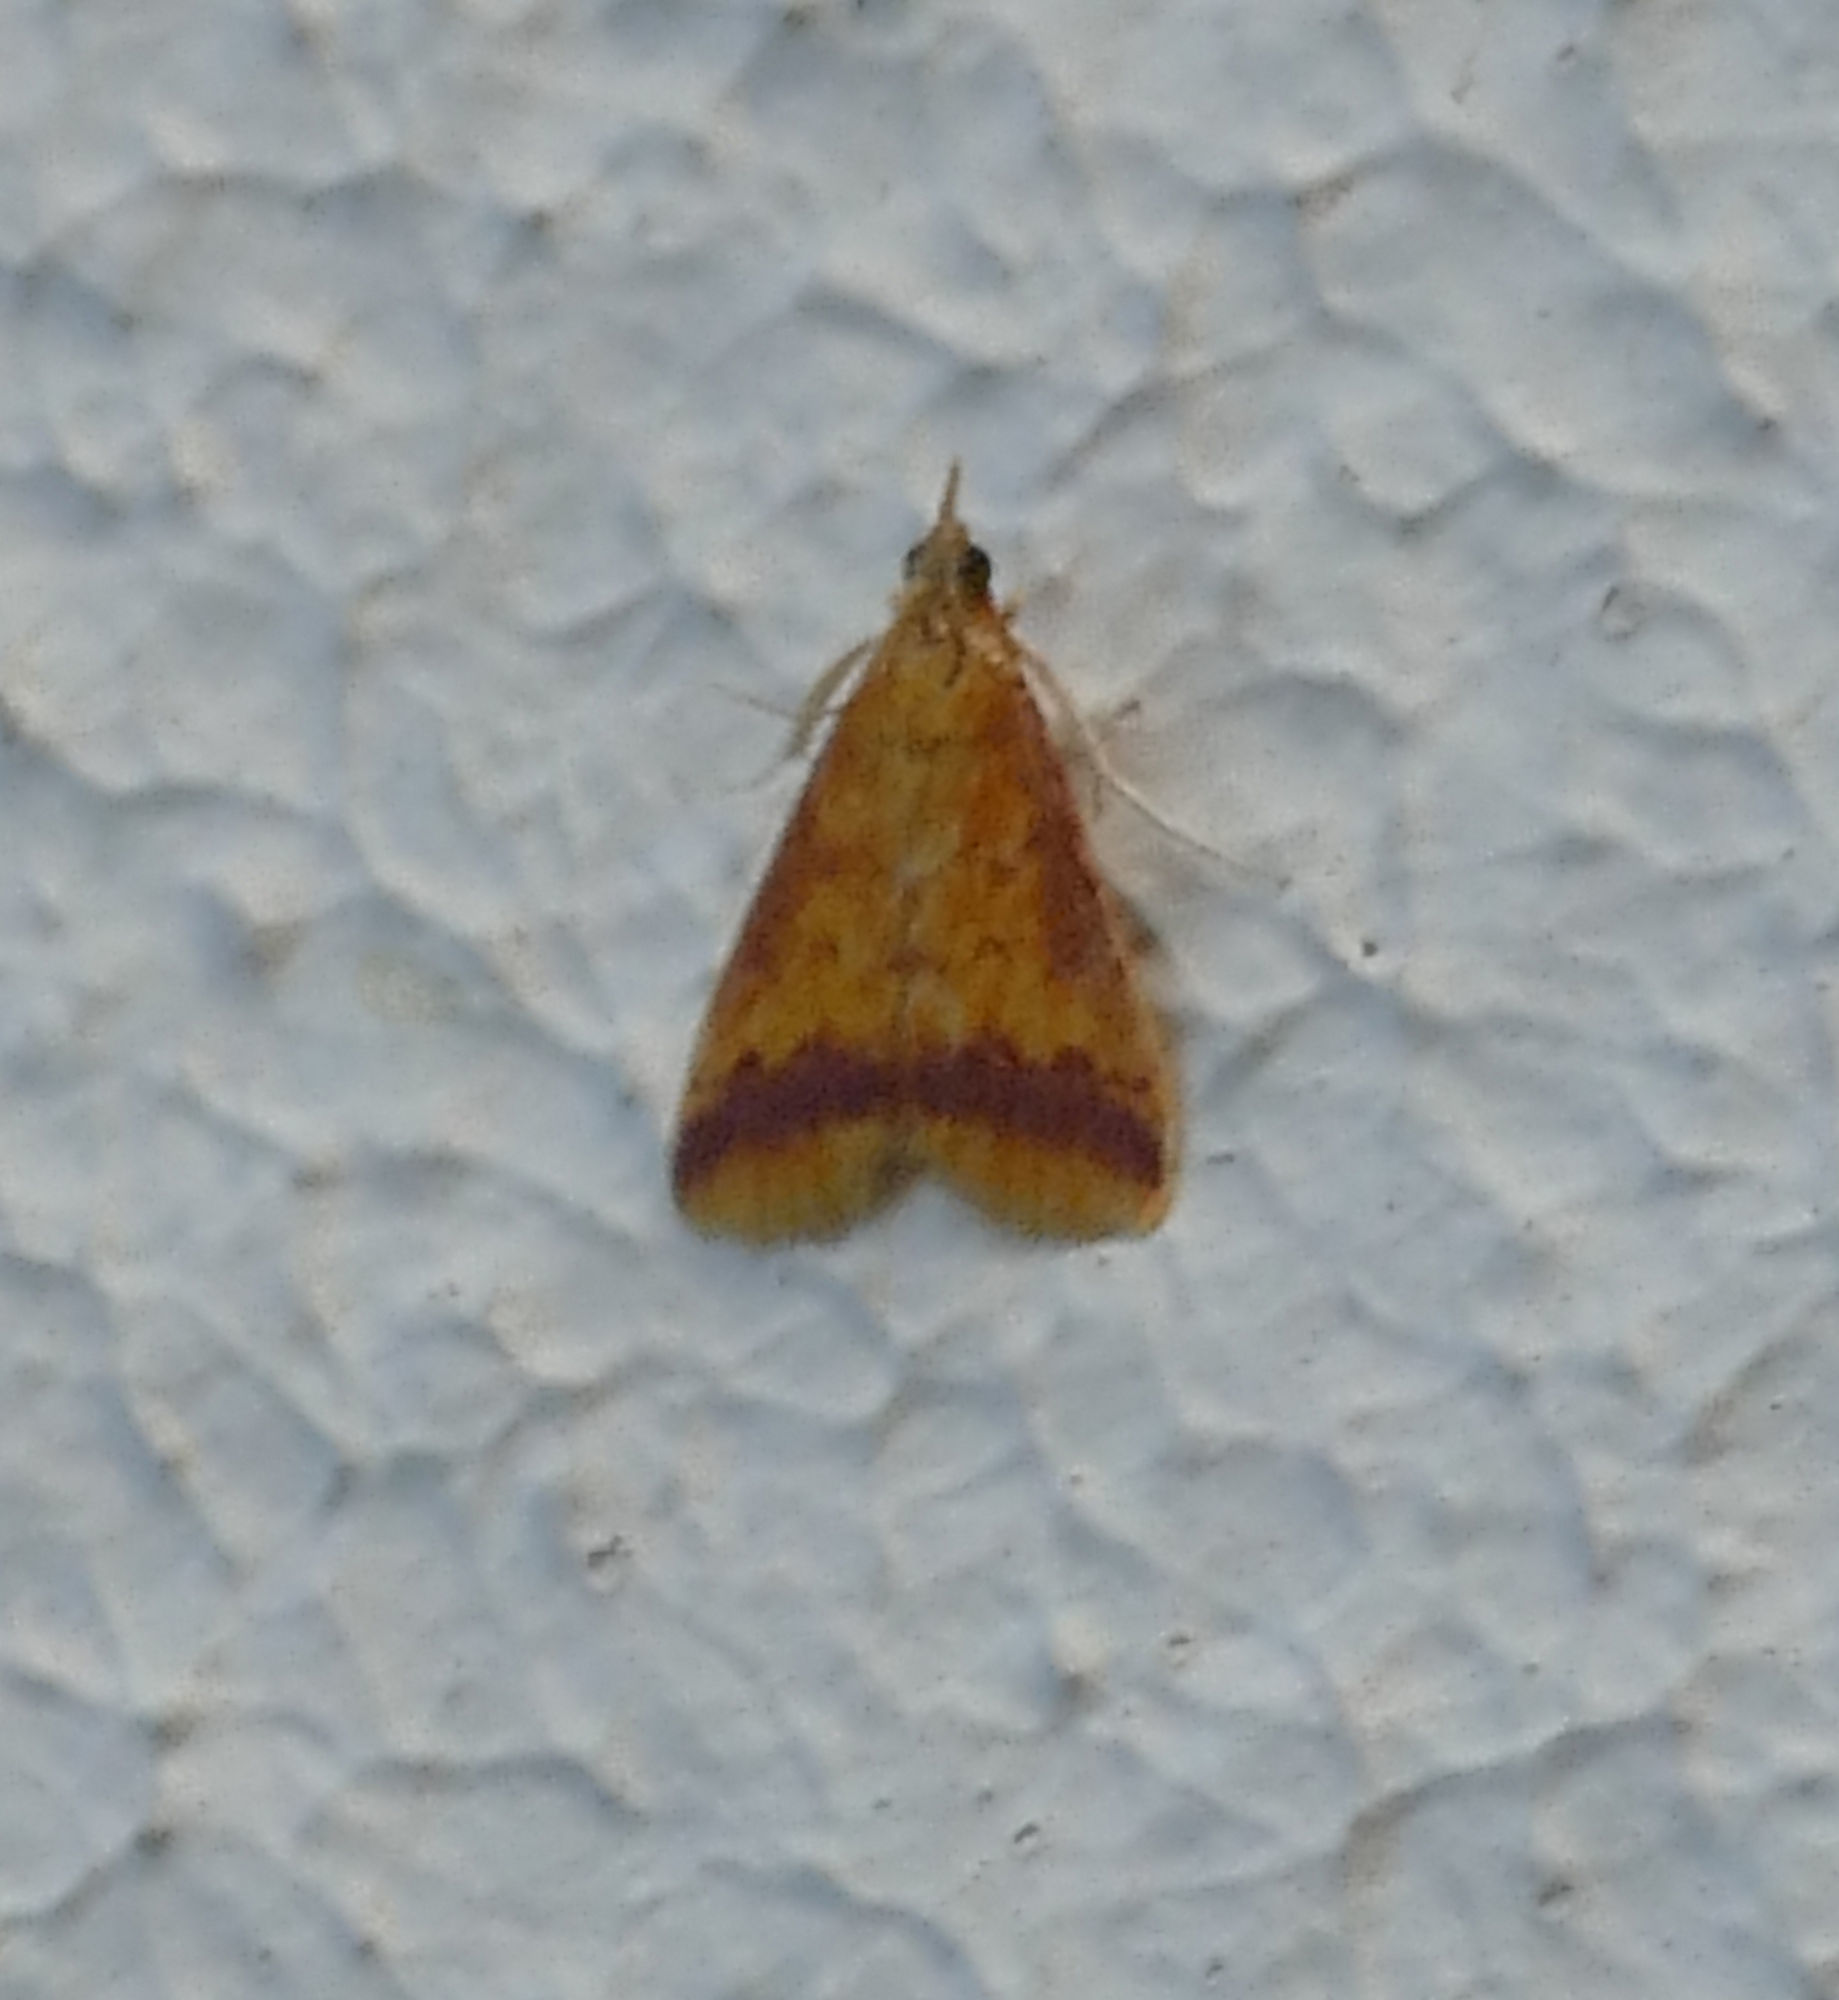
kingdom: Animalia
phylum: Arthropoda
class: Insecta
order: Lepidoptera
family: Crambidae
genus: Hyalorista
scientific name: Hyalorista taeniolalis
